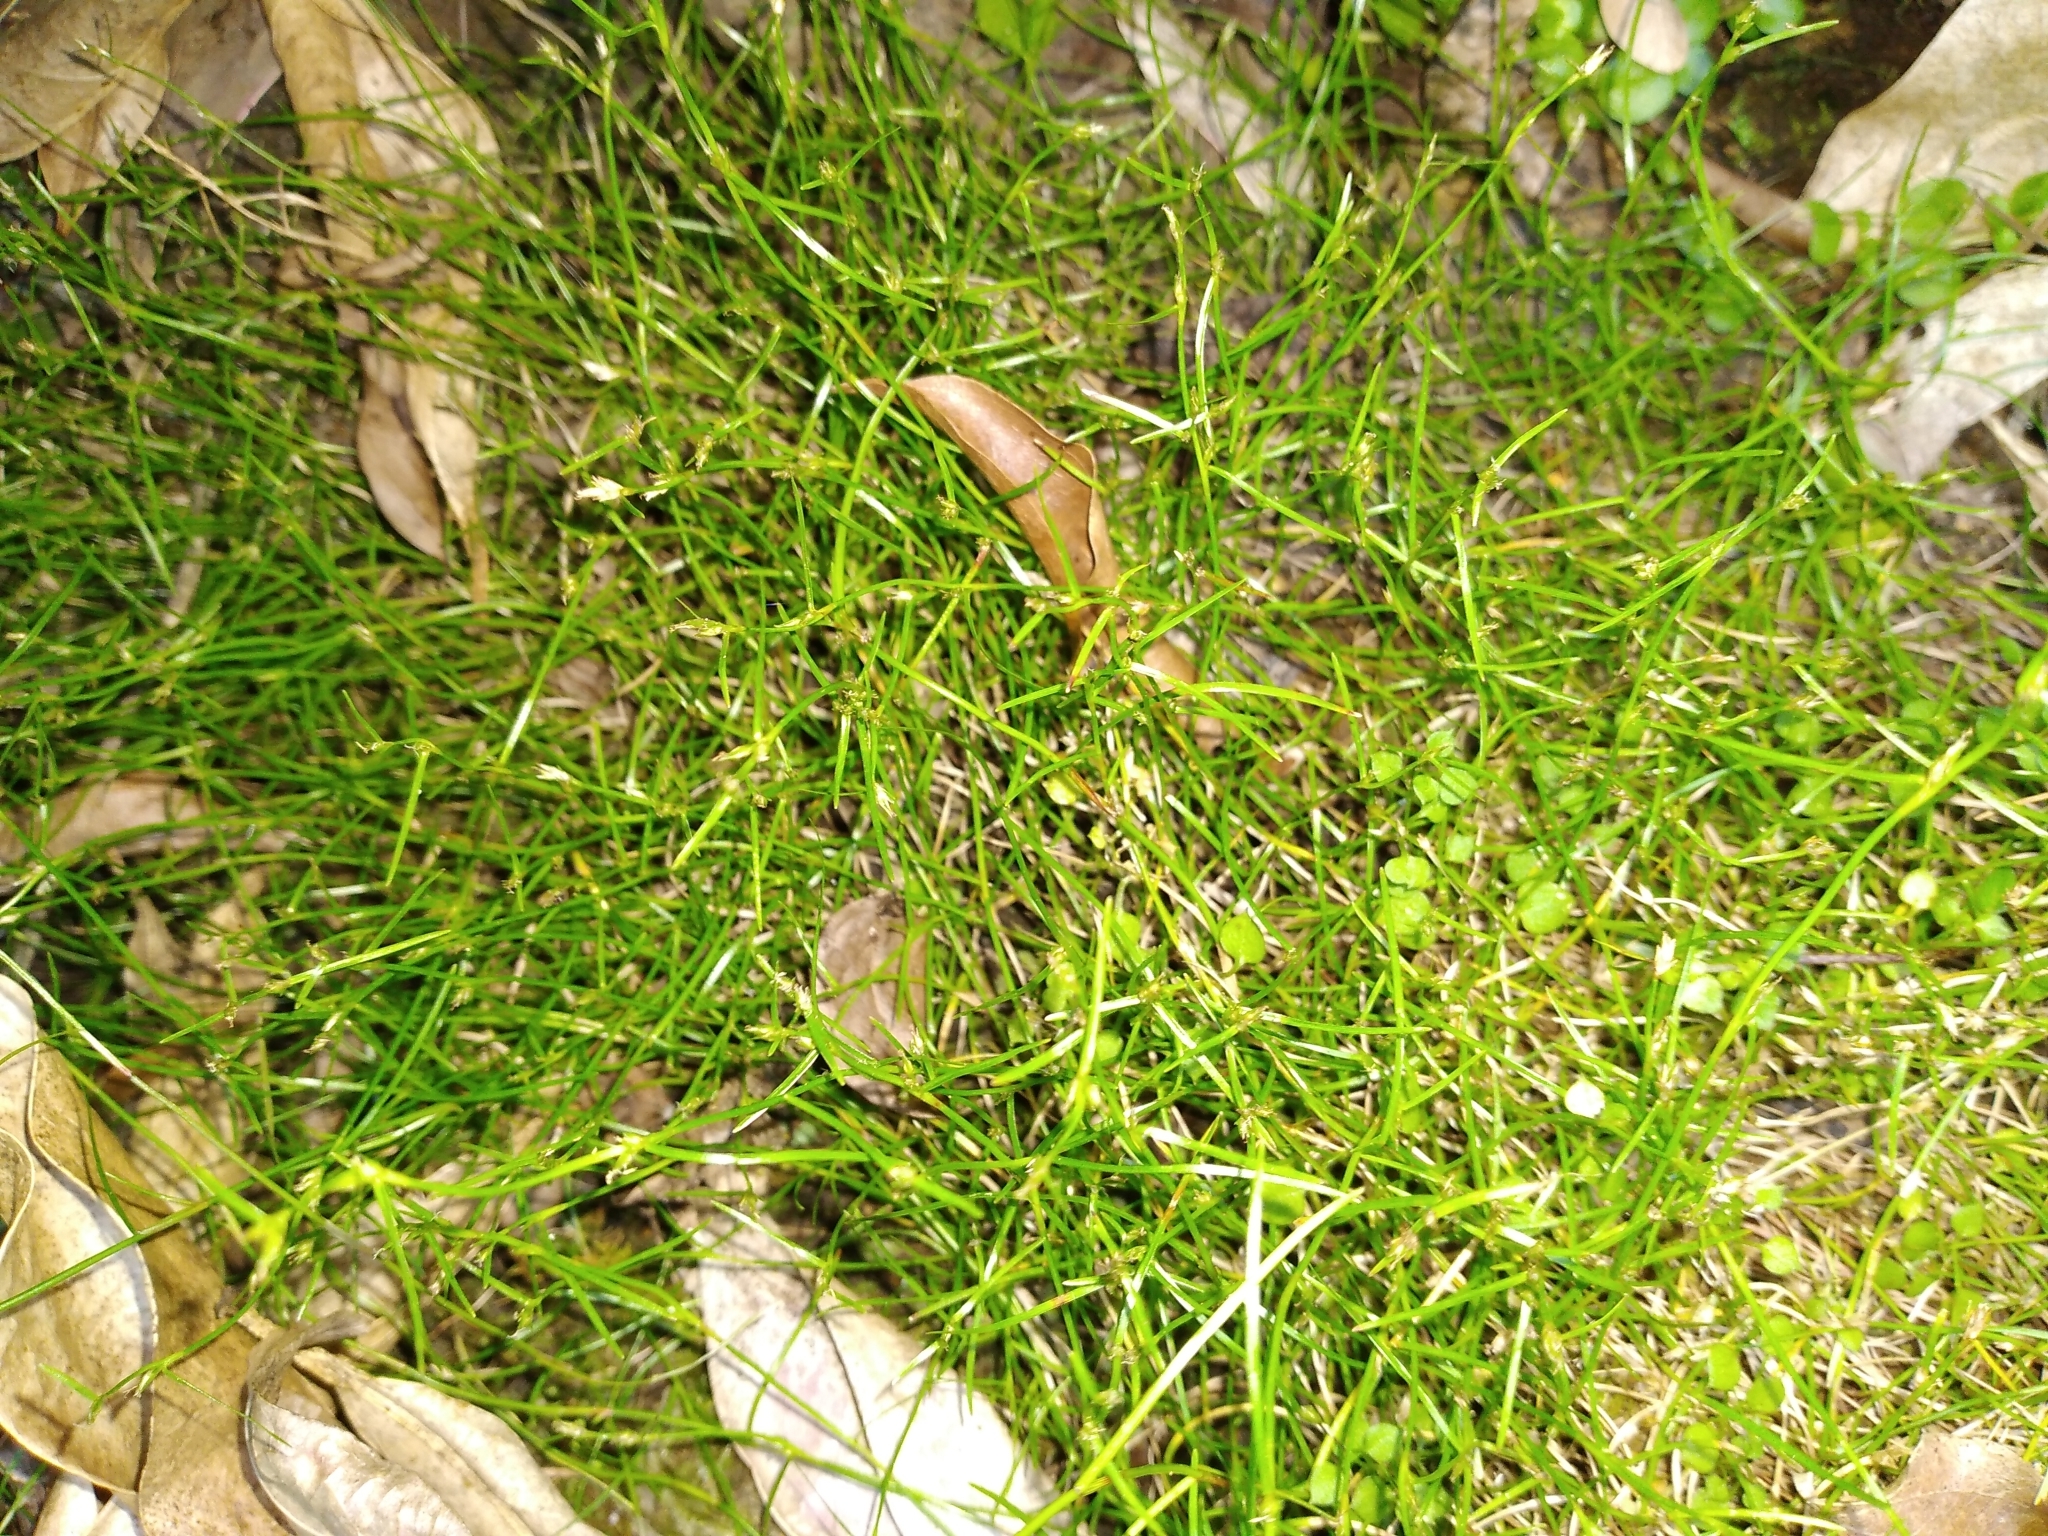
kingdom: Plantae
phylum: Tracheophyta
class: Liliopsida
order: Poales
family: Cyperaceae
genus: Schoenus
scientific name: Schoenus maschalinus
